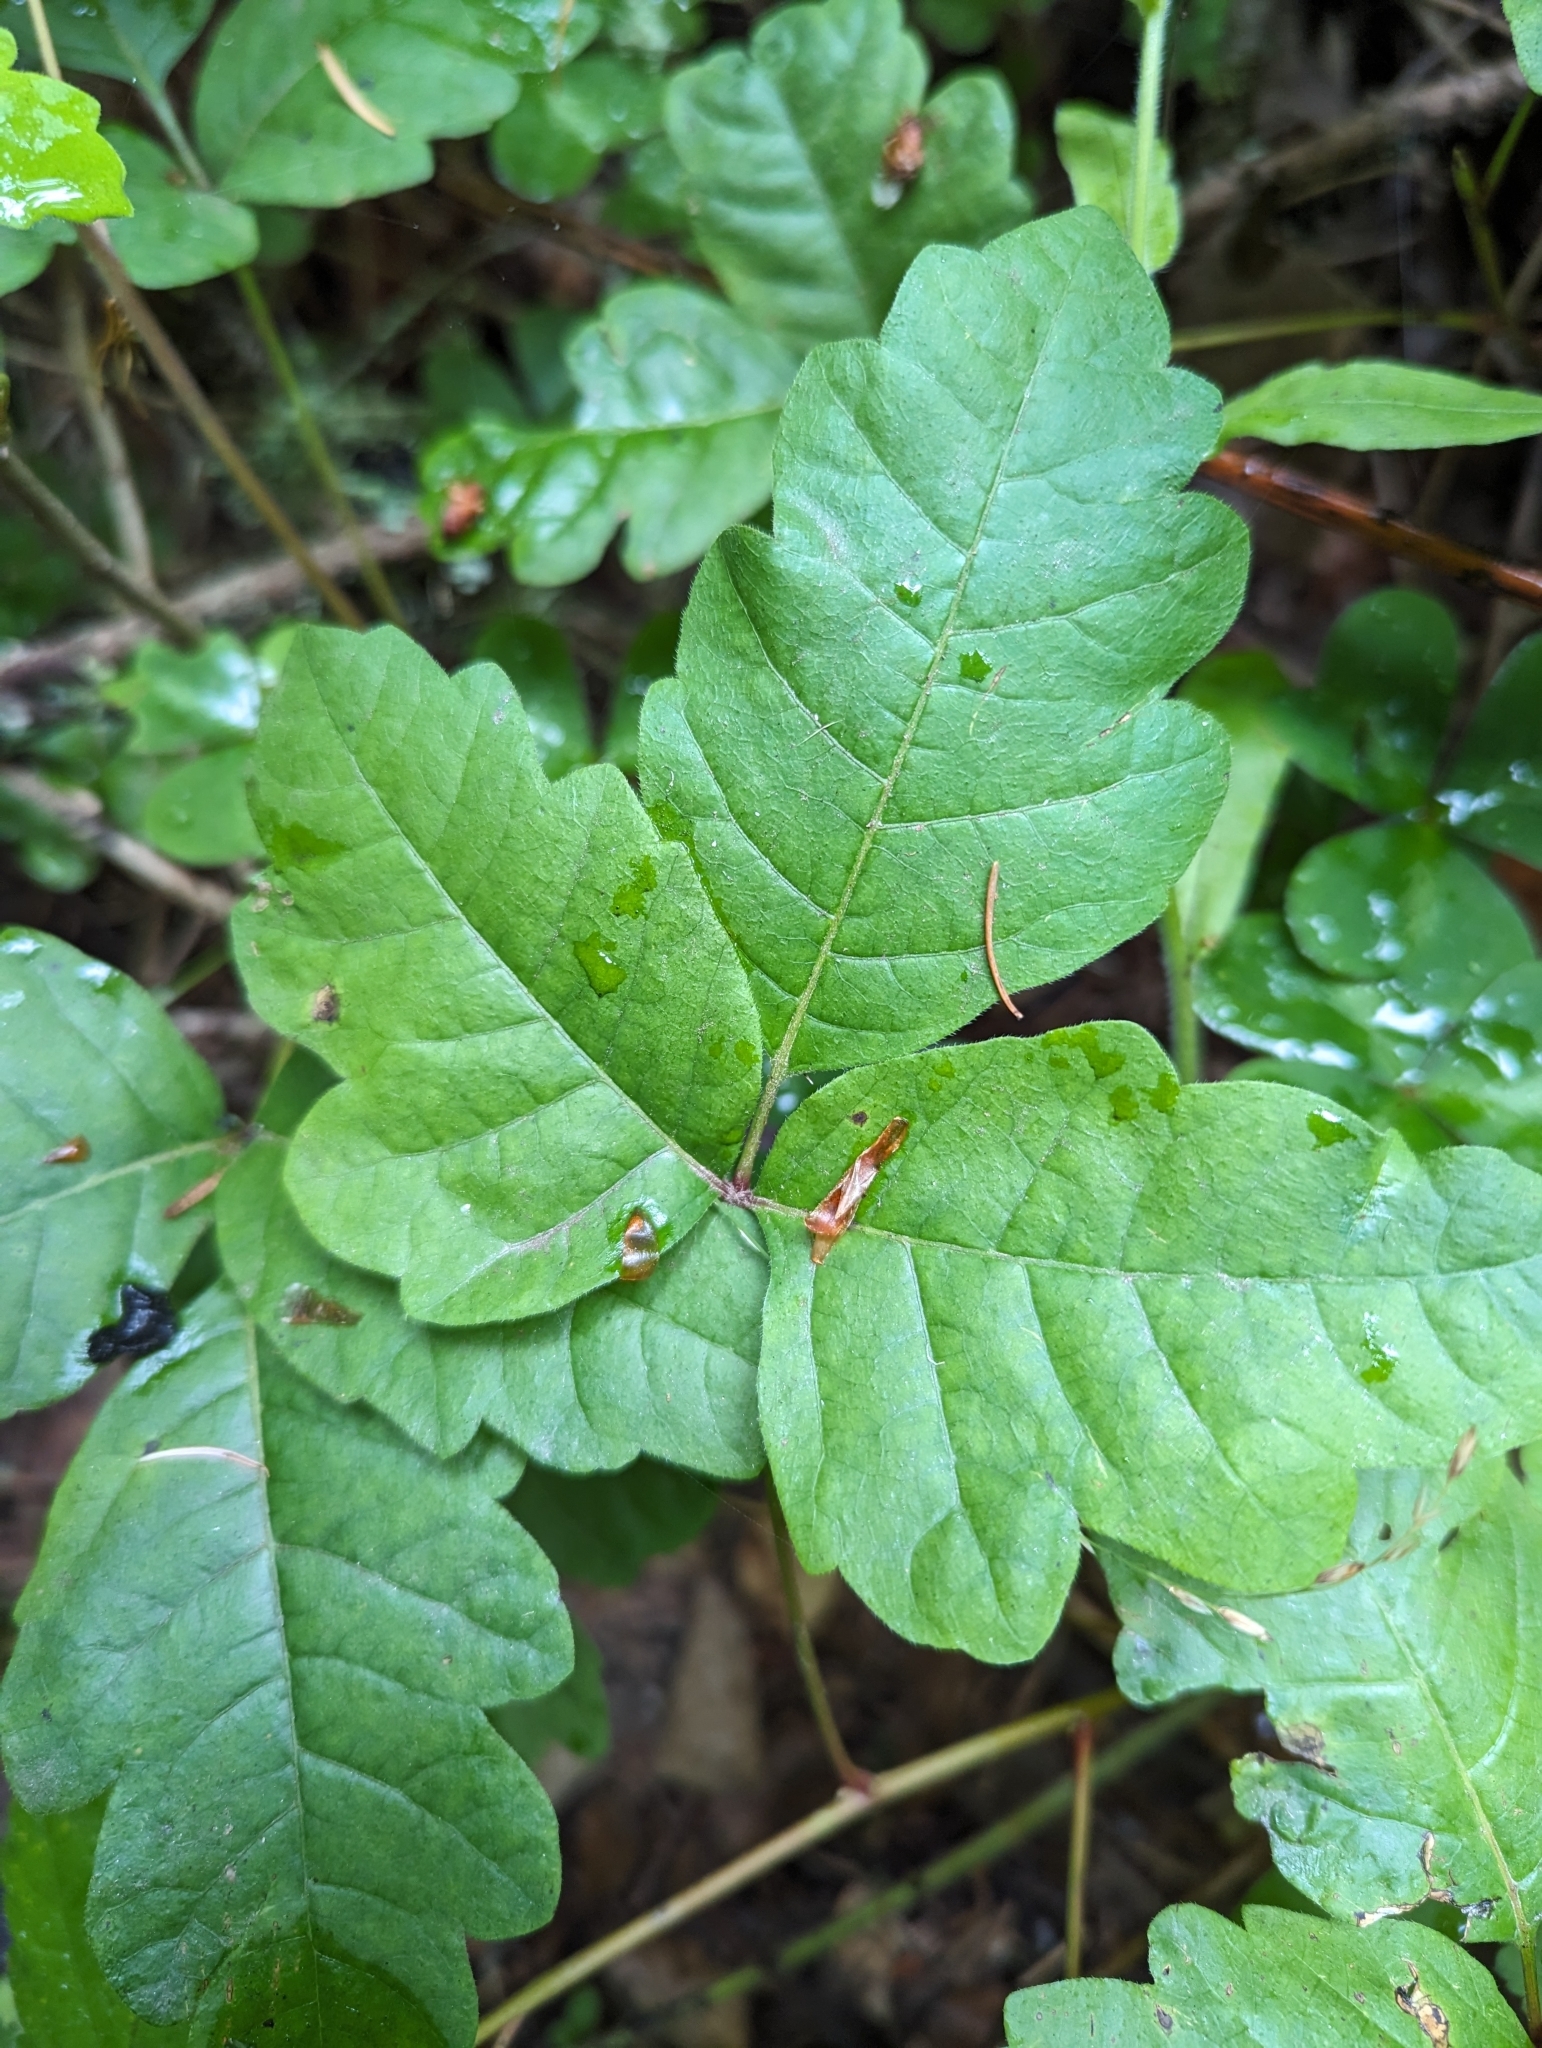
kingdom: Plantae
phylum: Tracheophyta
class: Magnoliopsida
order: Sapindales
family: Anacardiaceae
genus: Toxicodendron
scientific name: Toxicodendron diversilobum
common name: Pacific poison-oak
